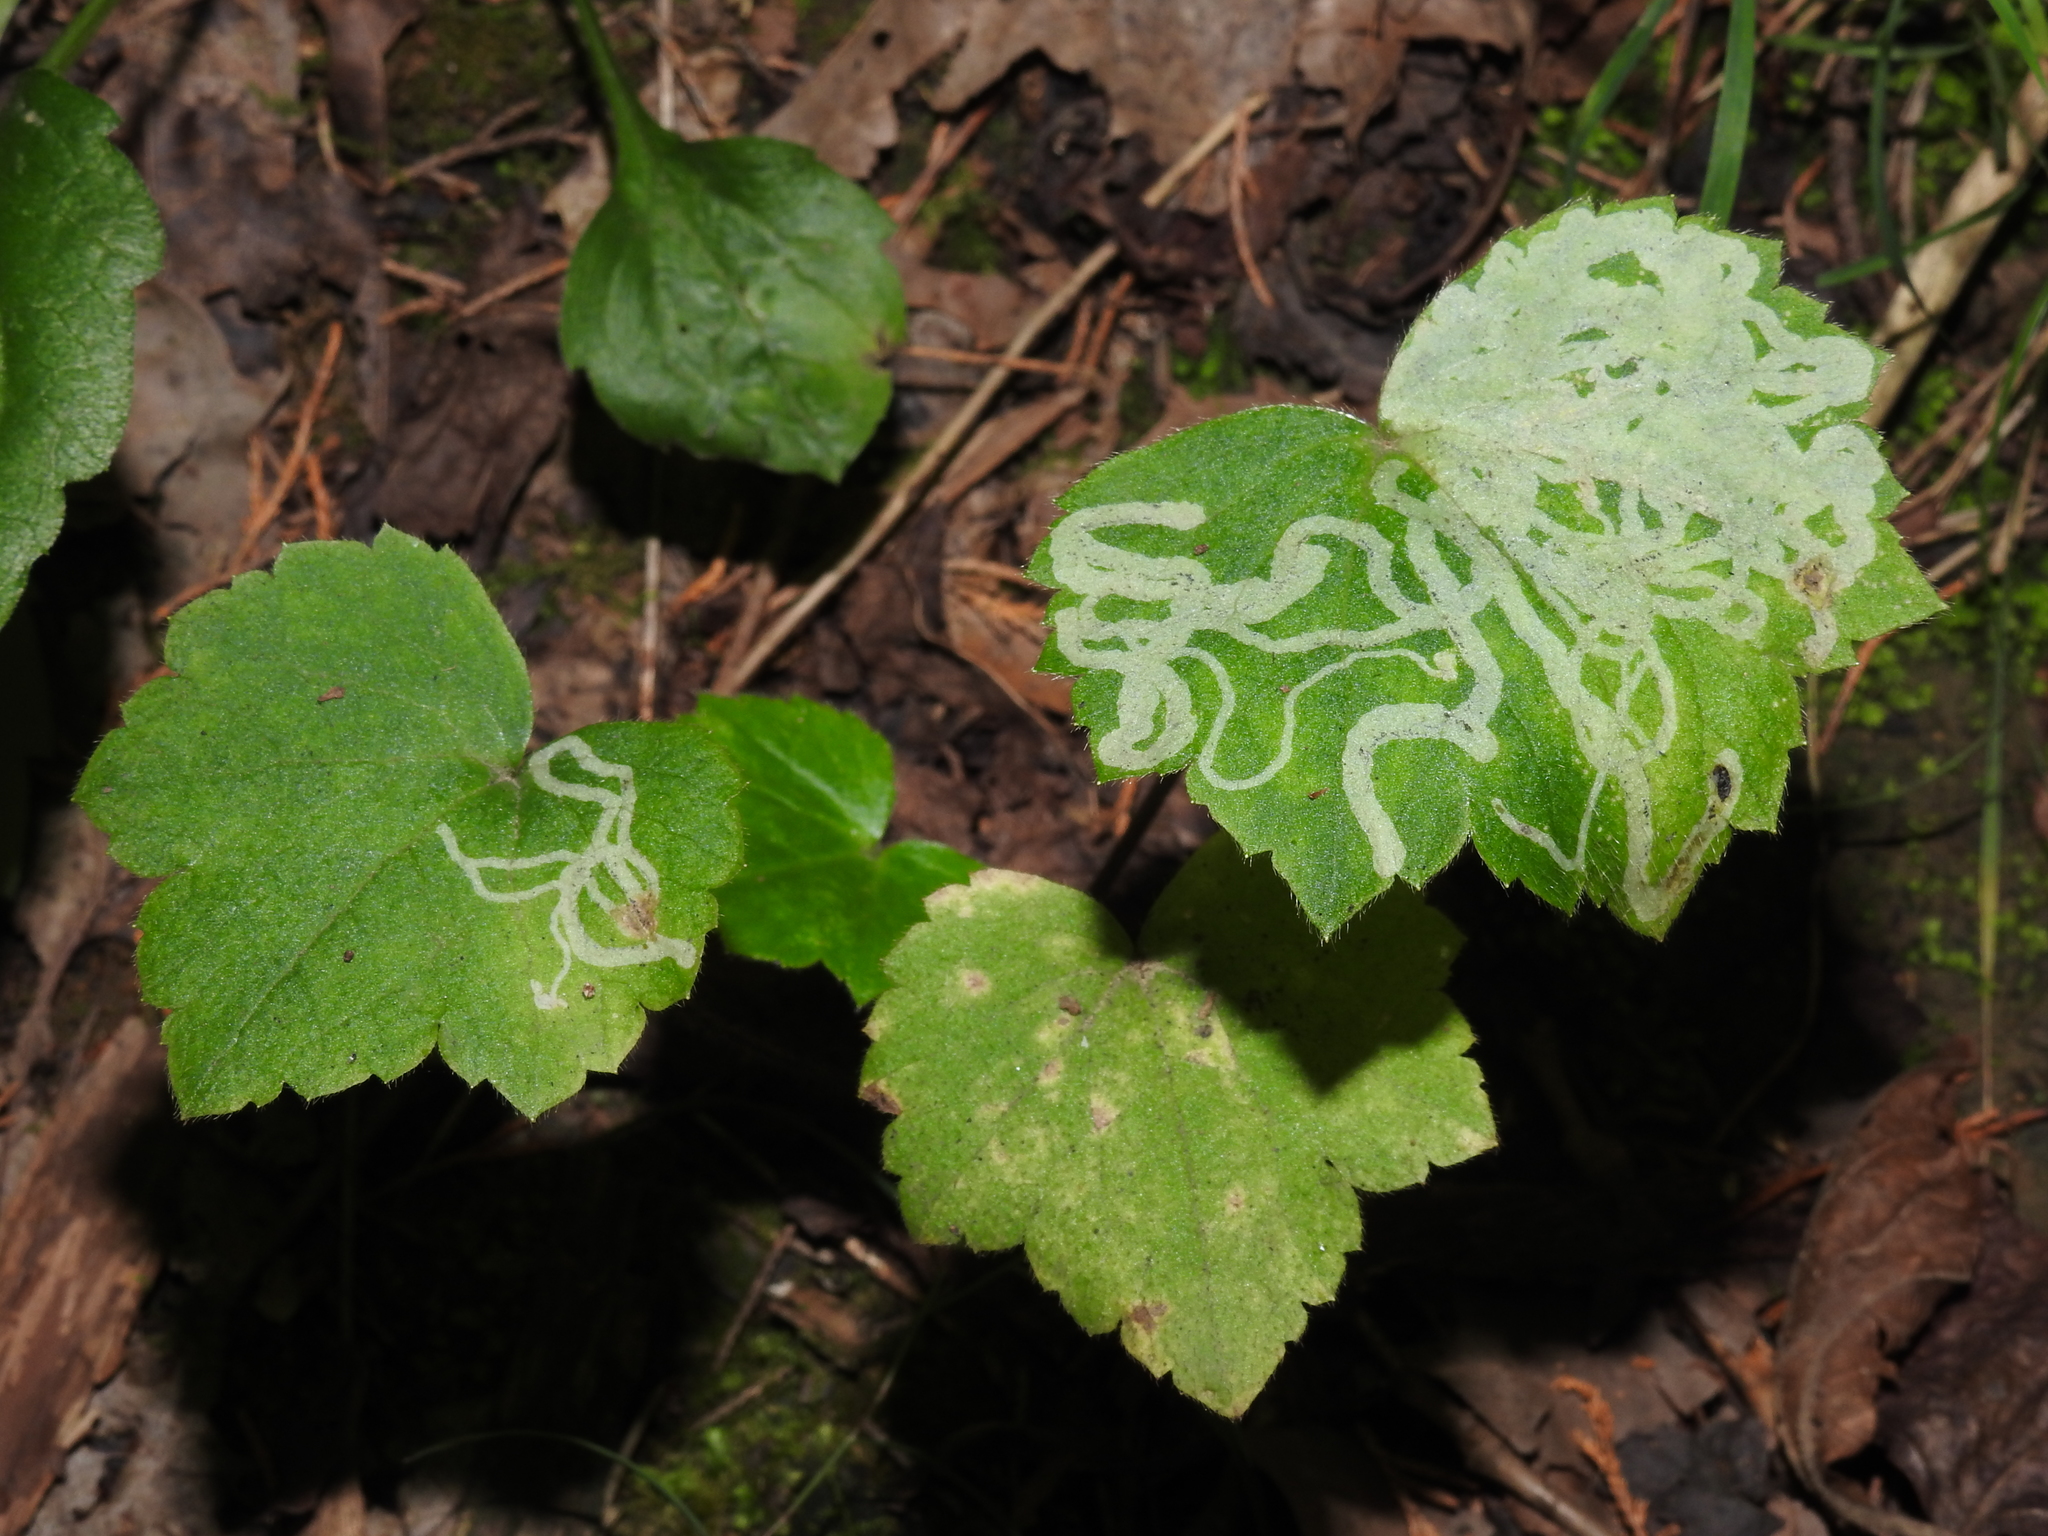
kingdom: Animalia
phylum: Arthropoda
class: Insecta
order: Diptera
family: Agromyzidae
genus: Phytomyza
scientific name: Phytomyza loewii
